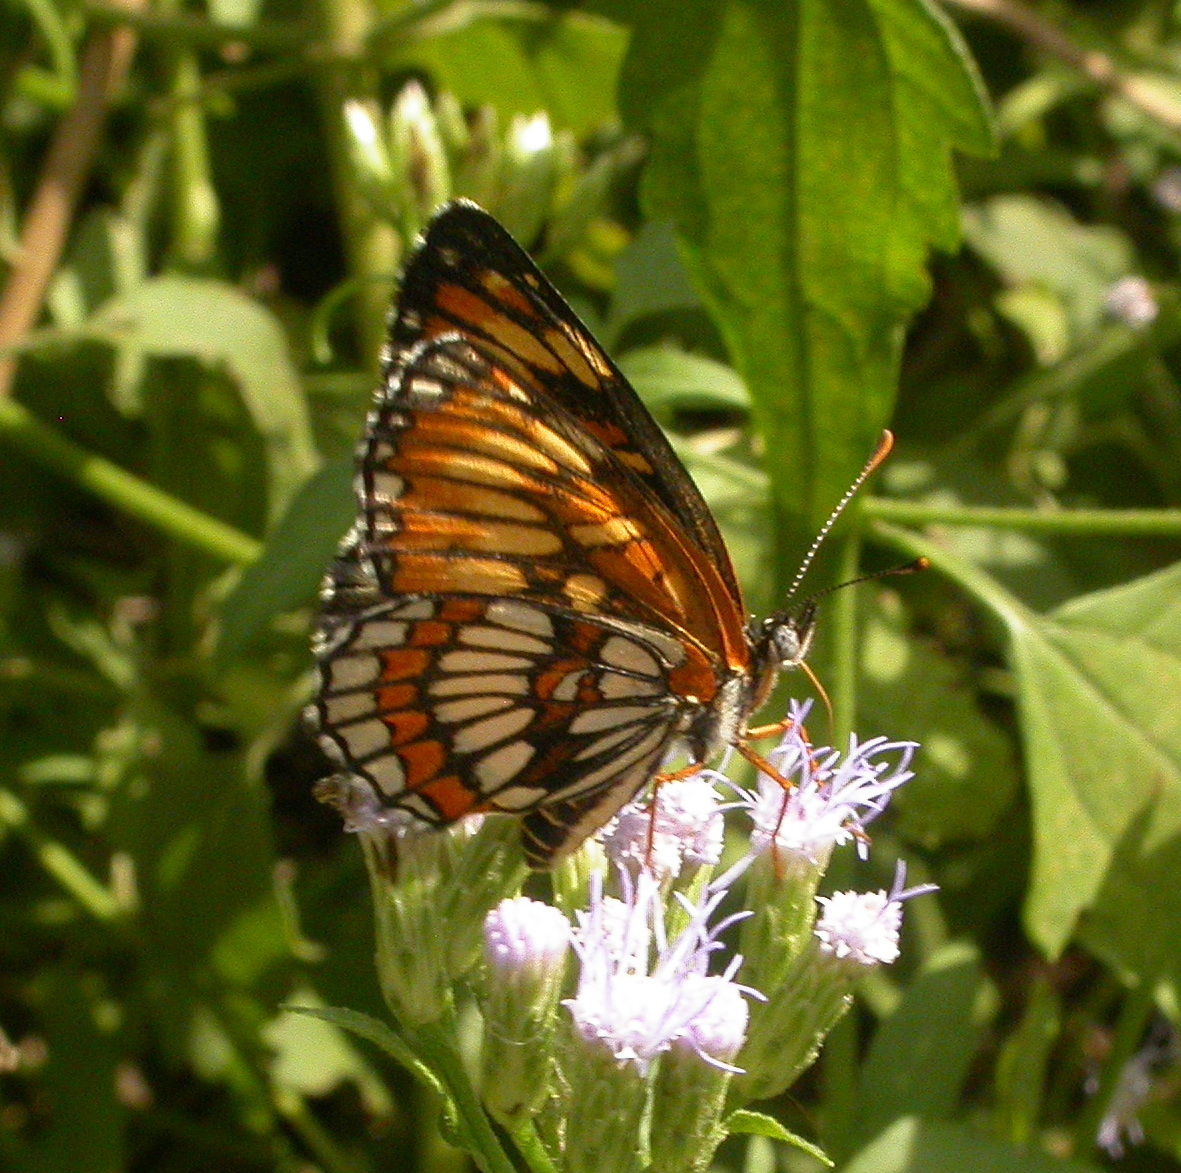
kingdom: Animalia
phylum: Arthropoda
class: Insecta
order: Lepidoptera
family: Nymphalidae
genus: Chlosyne
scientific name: Chlosyne
